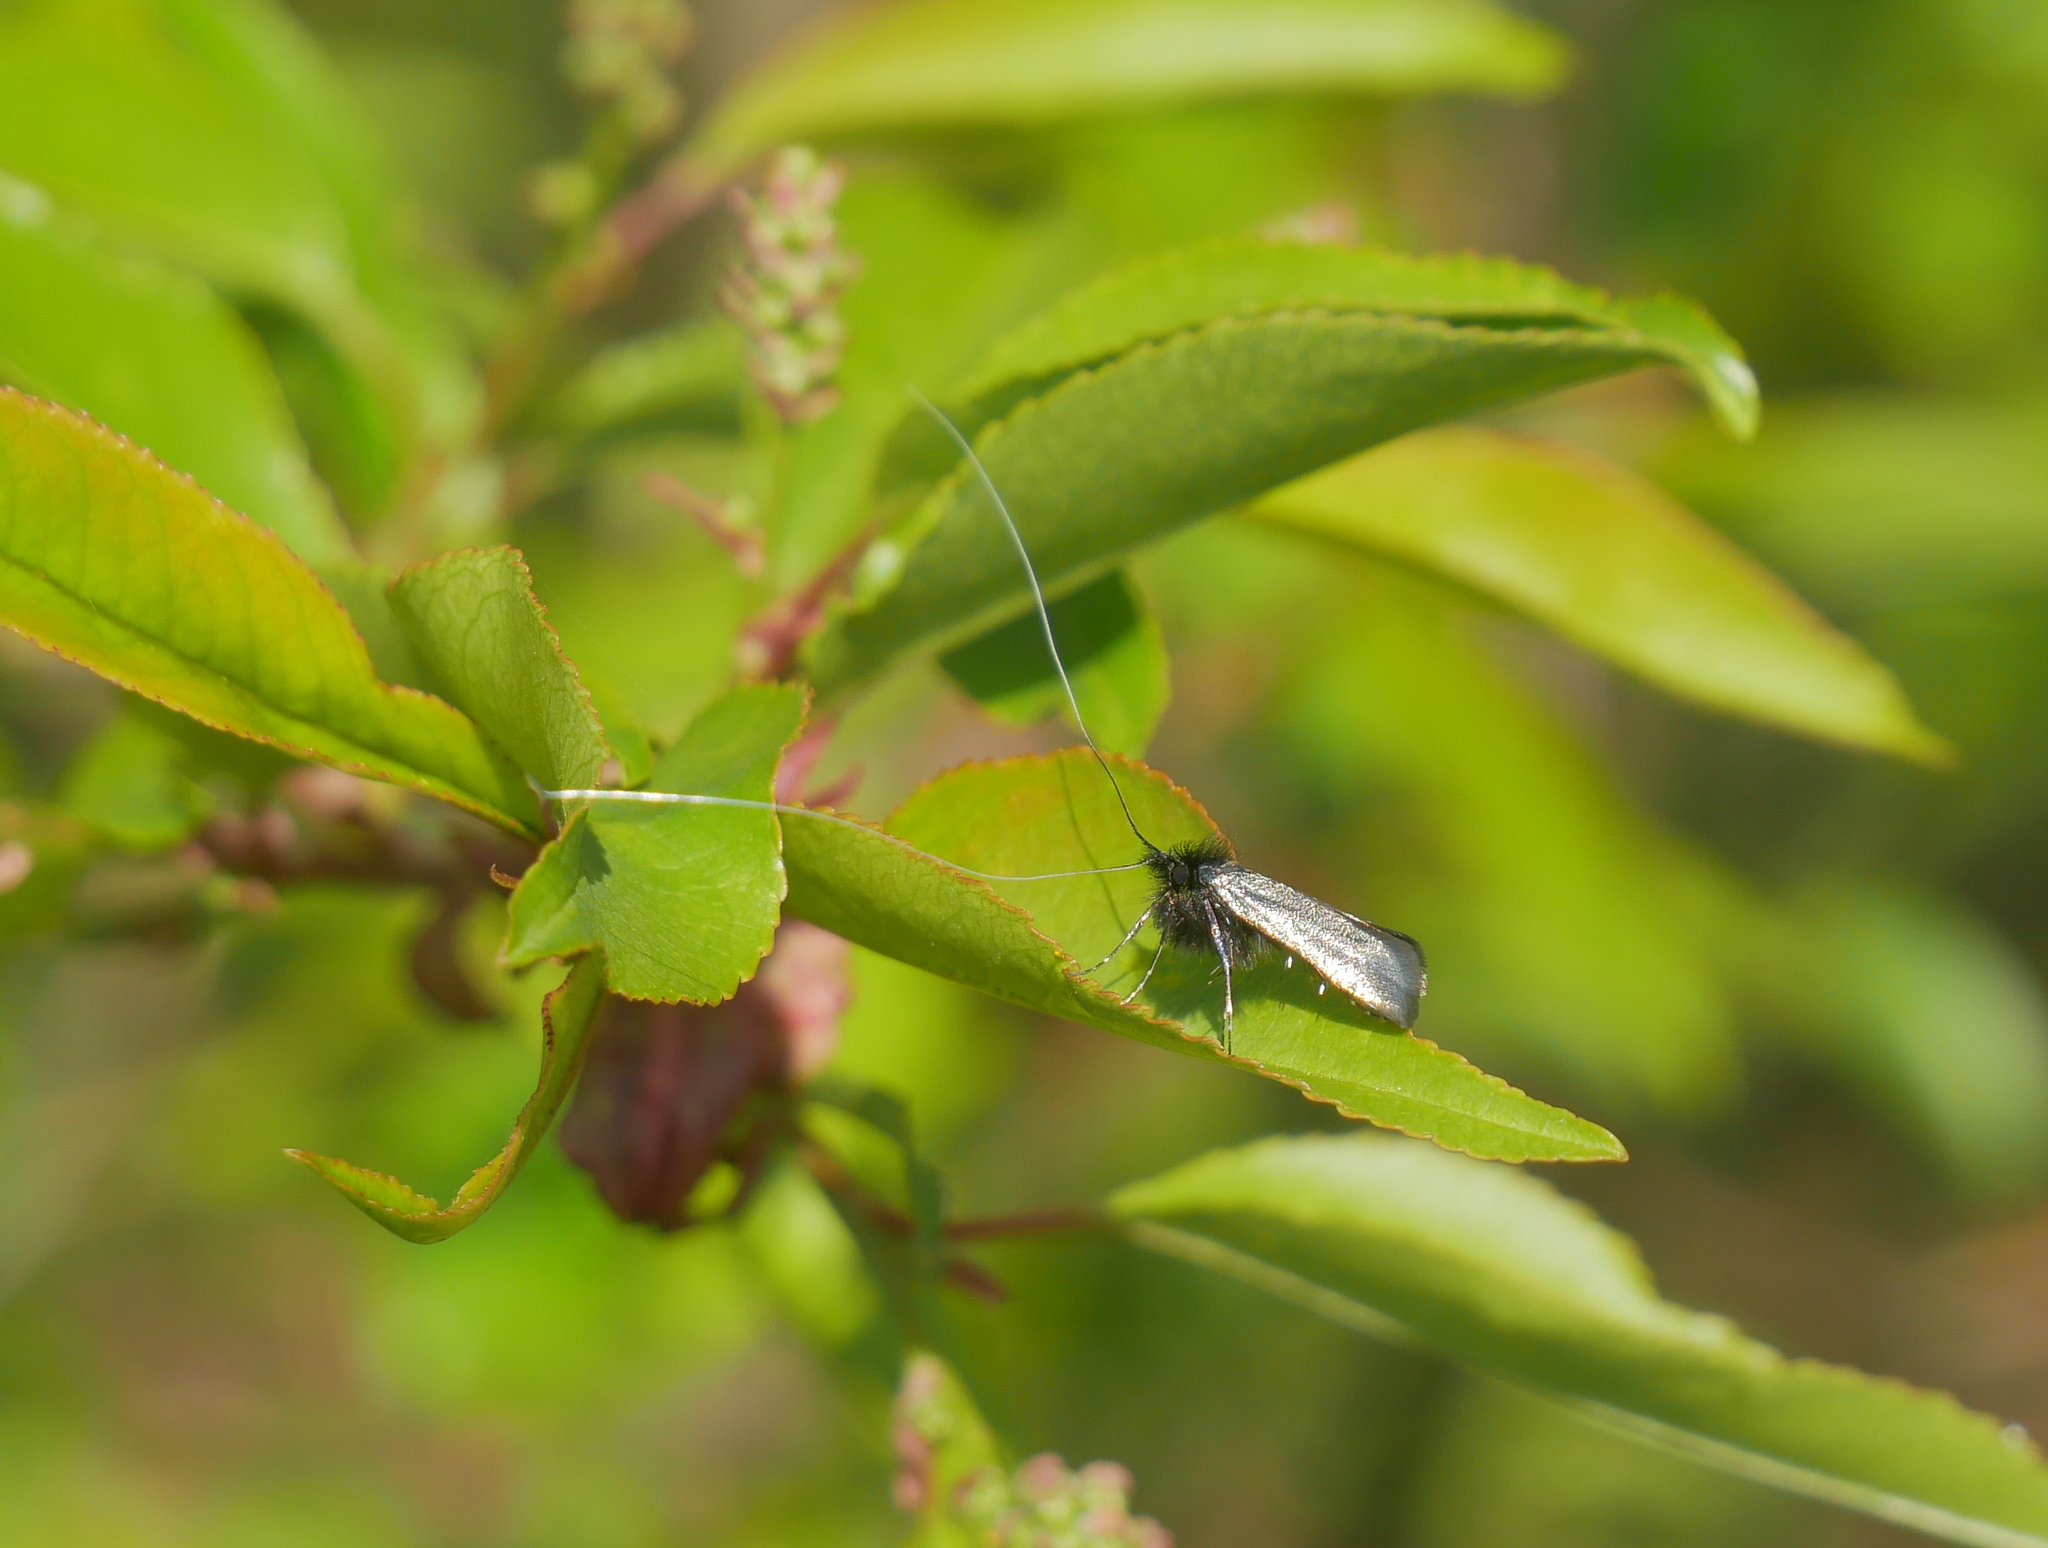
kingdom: Animalia
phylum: Arthropoda
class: Insecta
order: Lepidoptera
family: Adelidae
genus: Adela
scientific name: Adela viridella
